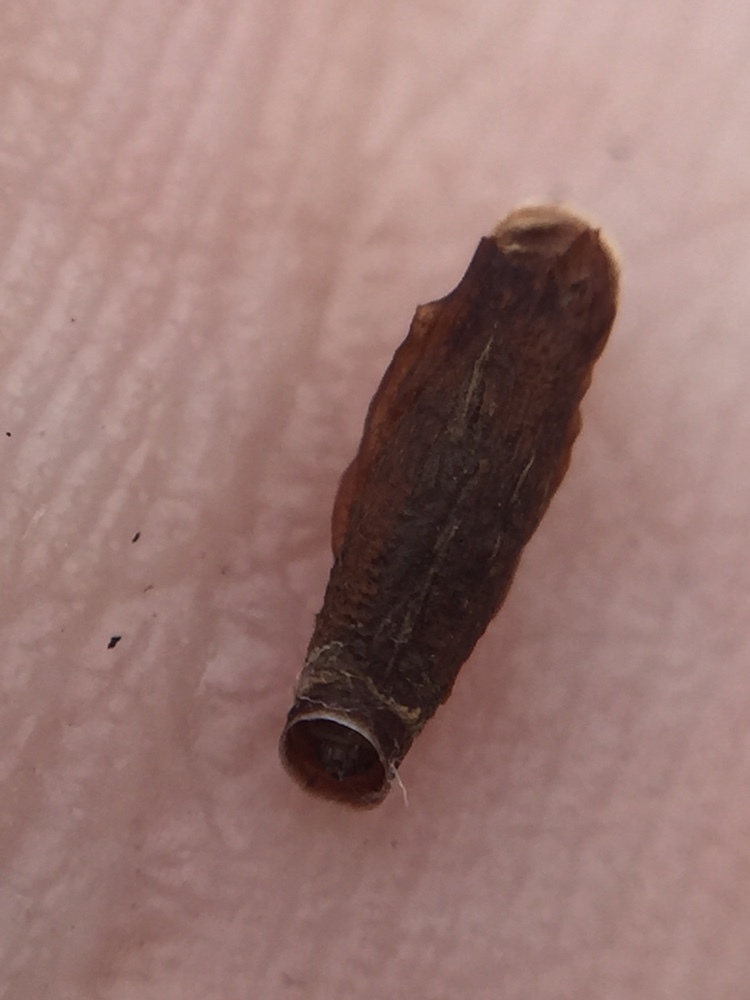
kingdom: Animalia
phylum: Arthropoda
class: Insecta
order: Lepidoptera
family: Coleophoridae
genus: Coleophora
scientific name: Coleophora deauratella
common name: Red-clover case-bearer
